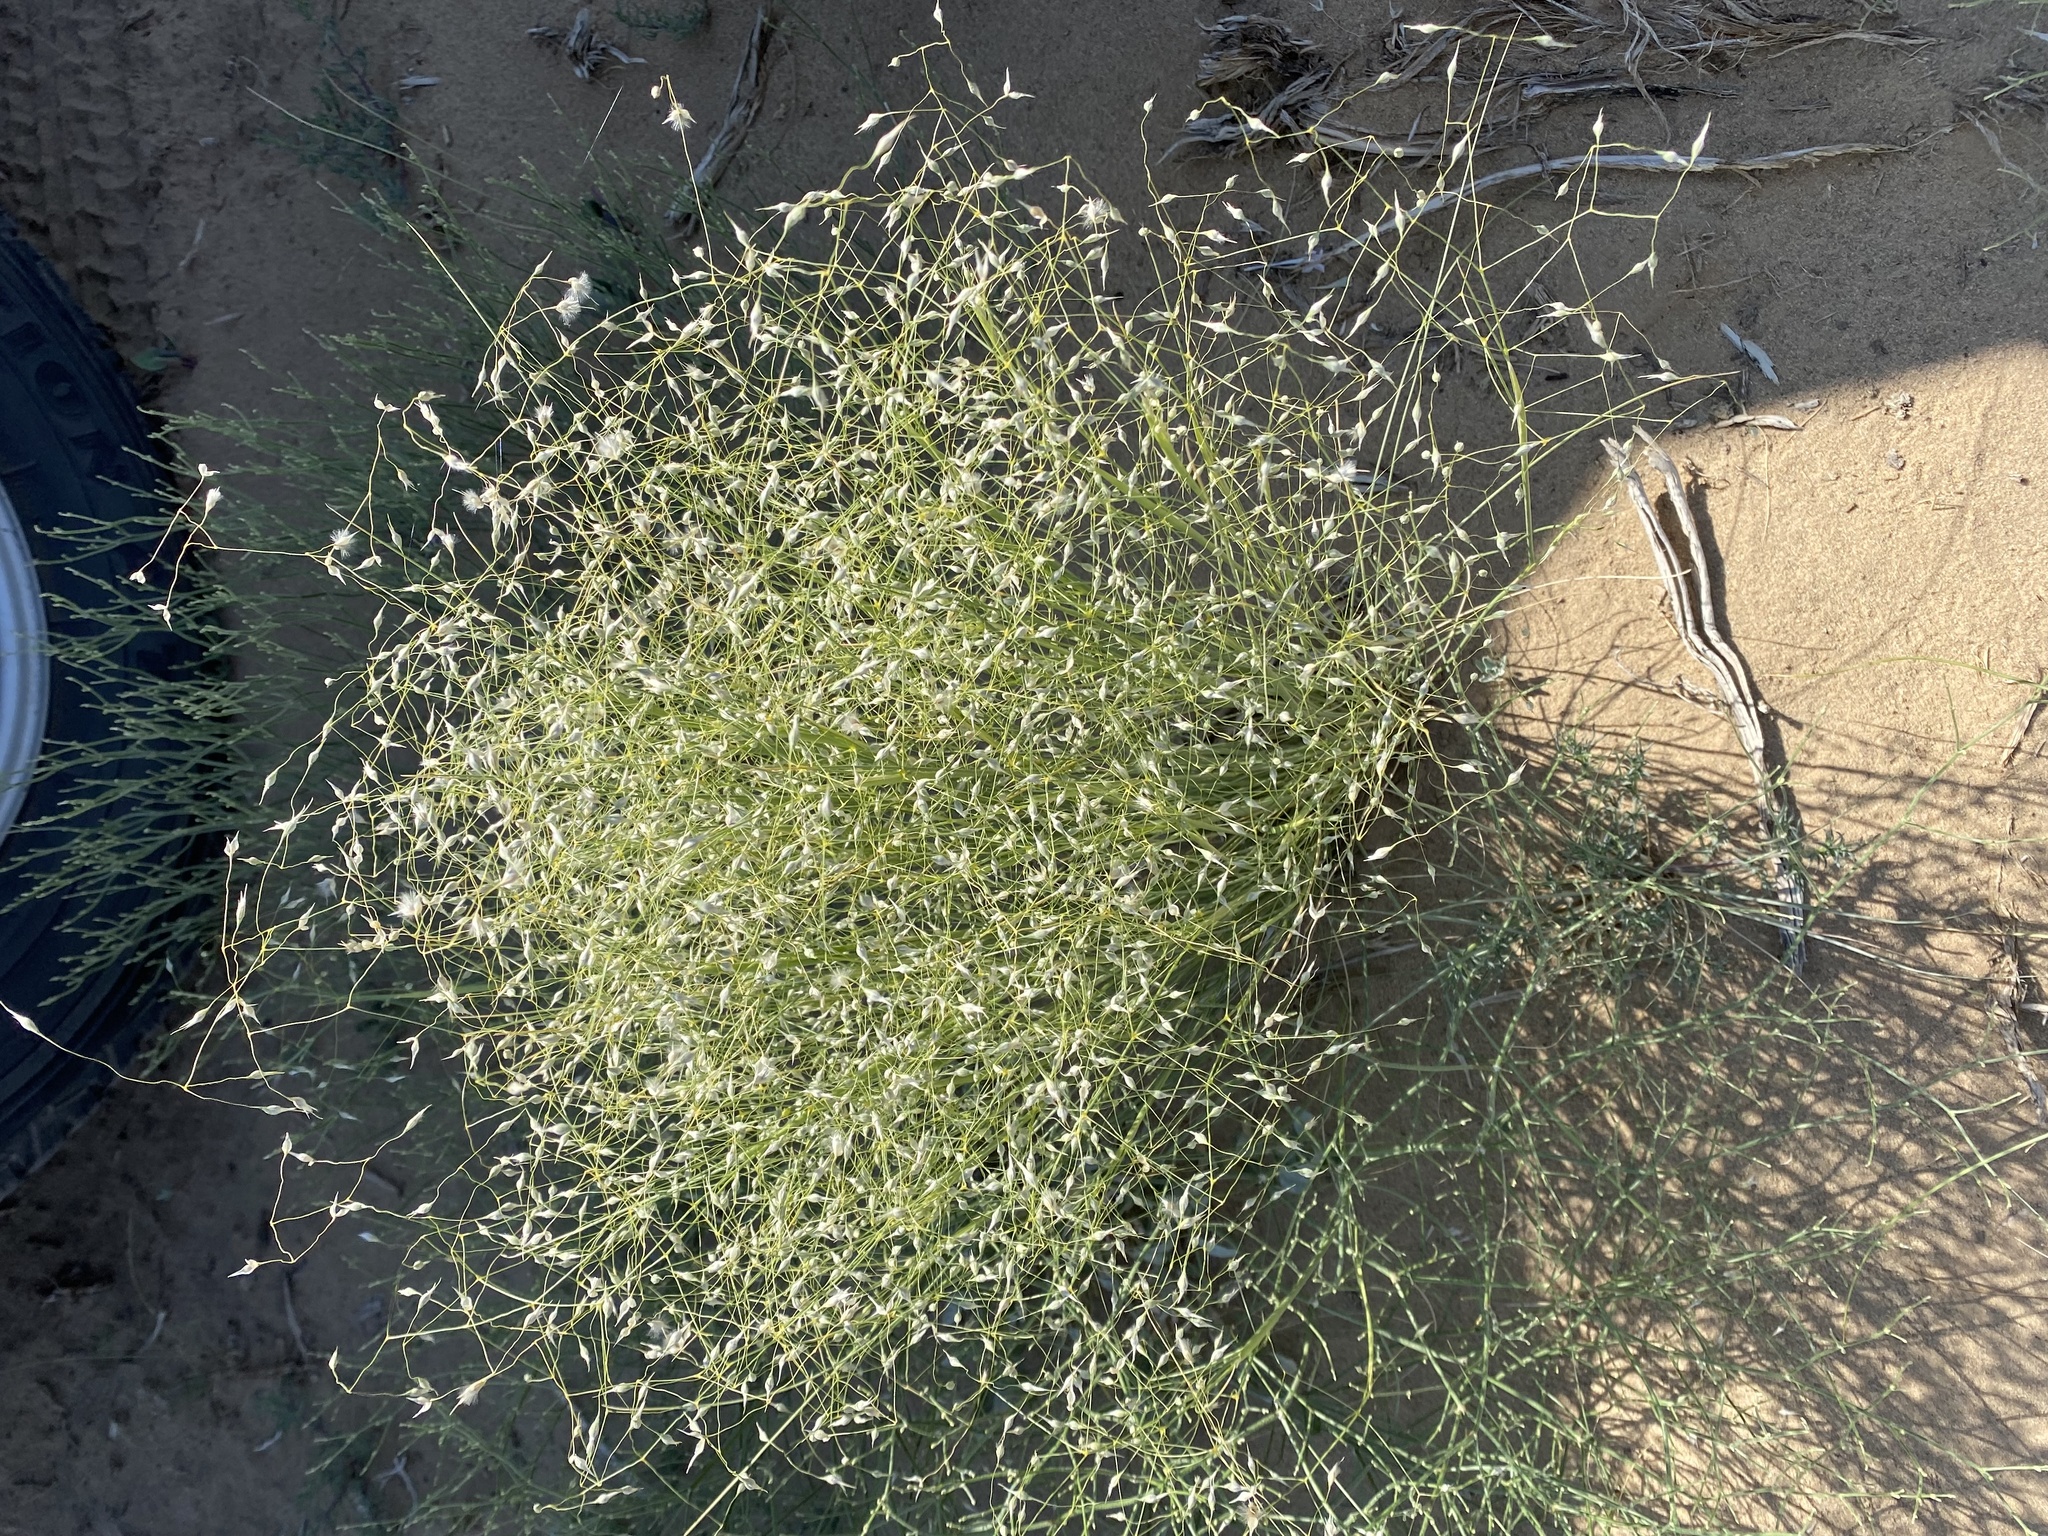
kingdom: Plantae
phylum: Tracheophyta
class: Liliopsida
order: Poales
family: Poaceae
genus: Eriocoma
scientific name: Eriocoma hymenoides
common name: Indian mountain ricegrass
